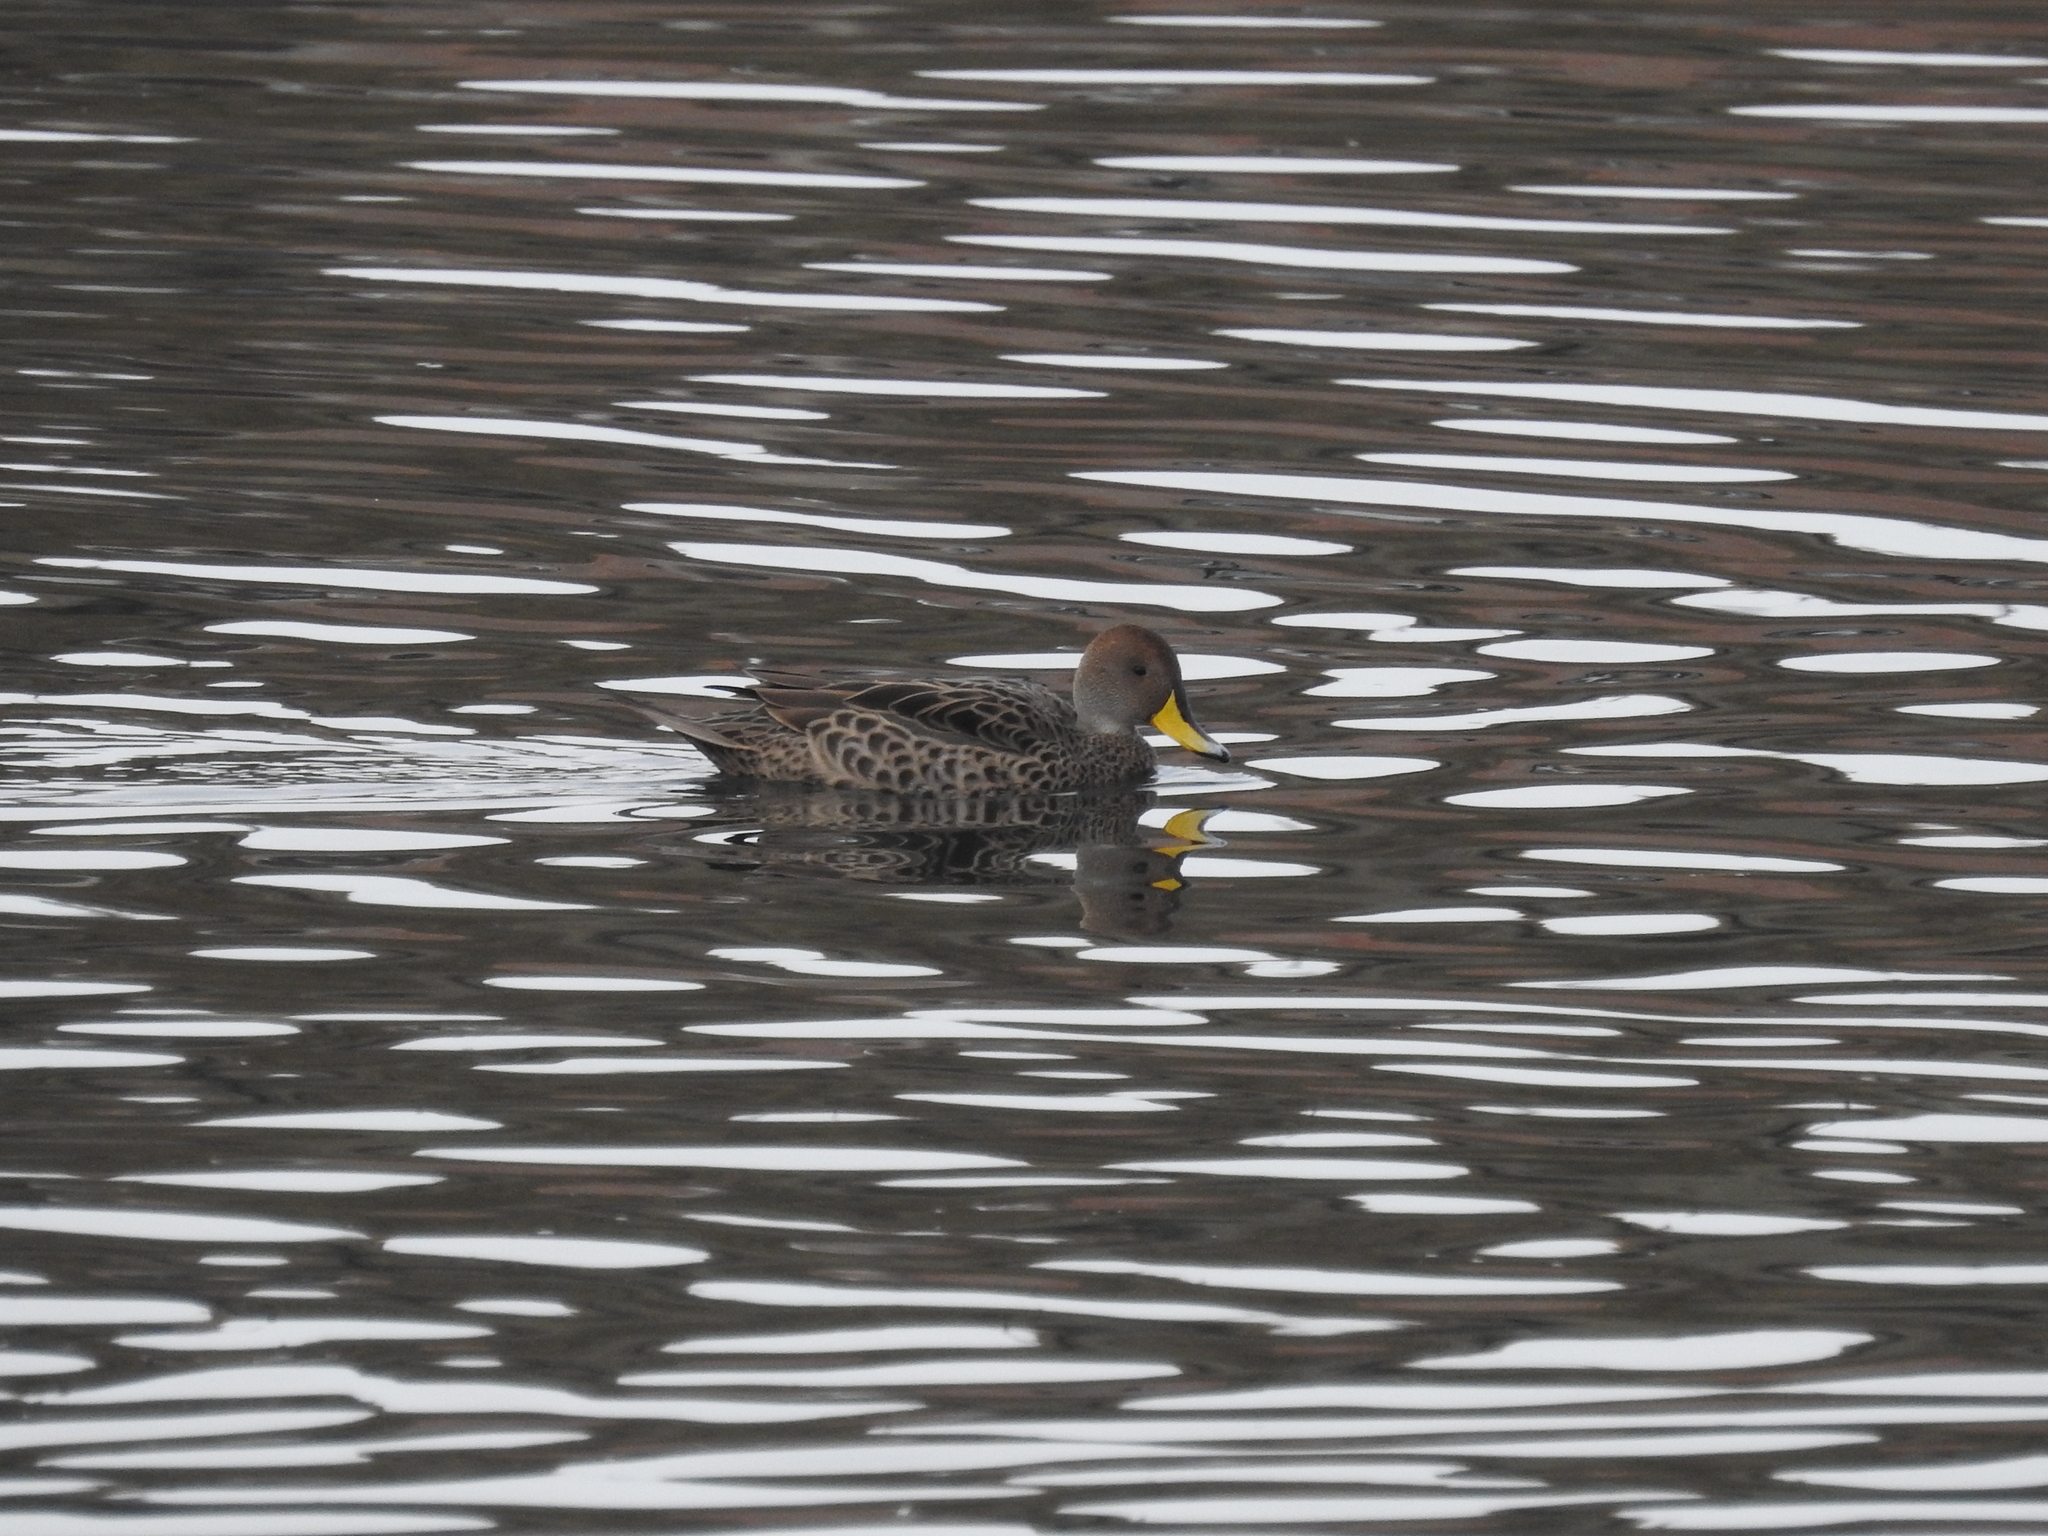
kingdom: Animalia
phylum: Chordata
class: Aves
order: Anseriformes
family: Anatidae
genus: Anas
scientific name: Anas georgica
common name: Yellow-billed pintail
